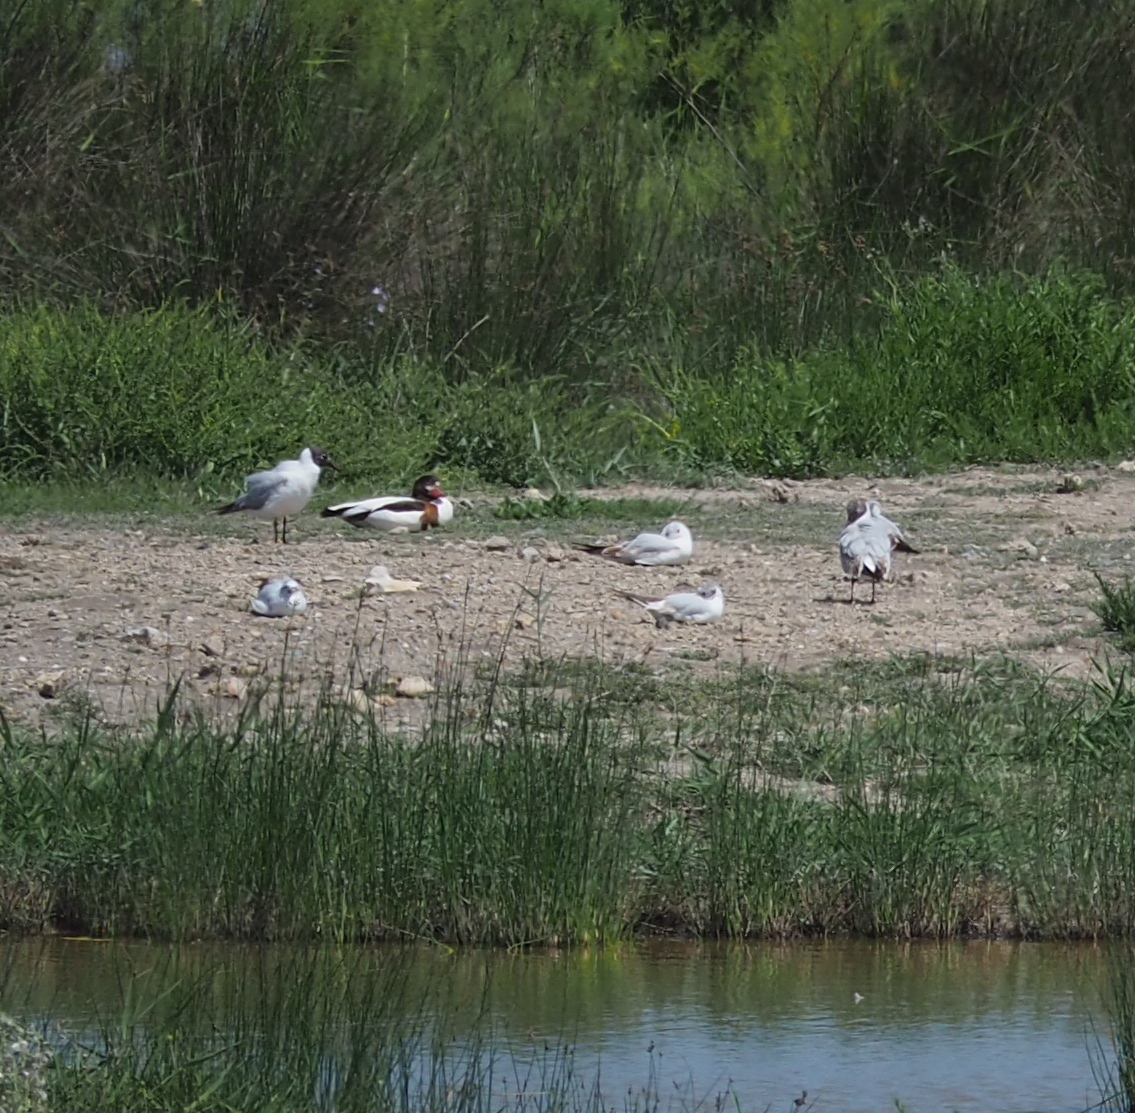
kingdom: Animalia
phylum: Chordata
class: Aves
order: Anseriformes
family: Anatidae
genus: Tadorna
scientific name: Tadorna tadorna
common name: Common shelduck
